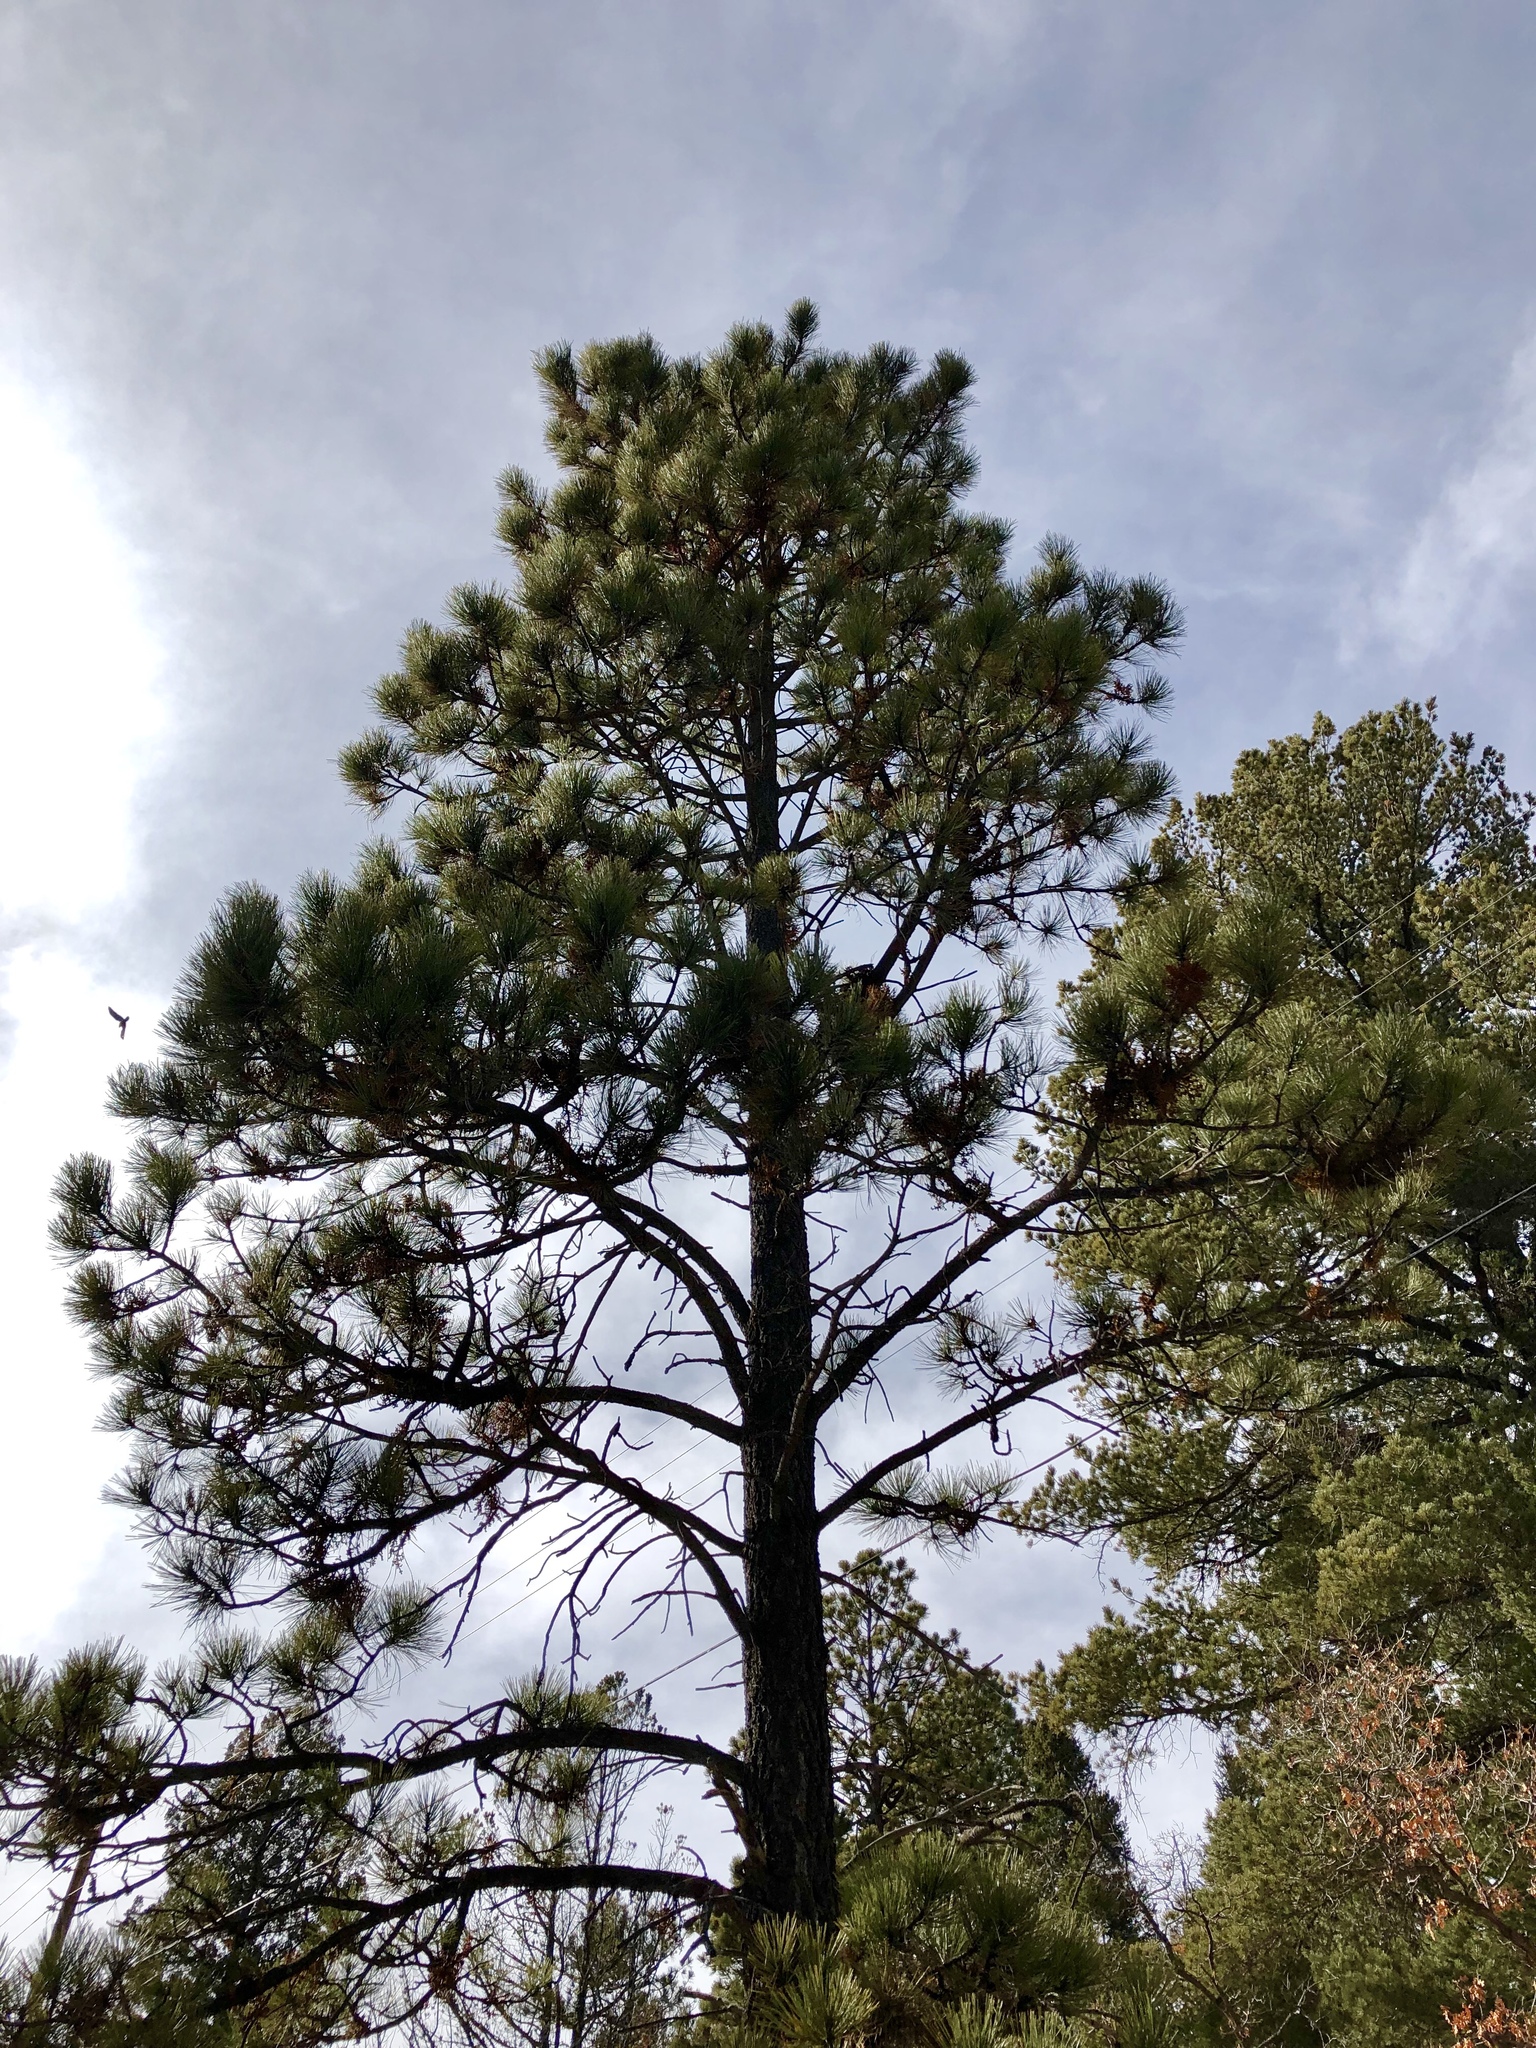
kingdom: Plantae
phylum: Tracheophyta
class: Pinopsida
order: Pinales
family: Pinaceae
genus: Pinus
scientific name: Pinus ponderosa
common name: Western yellow-pine
